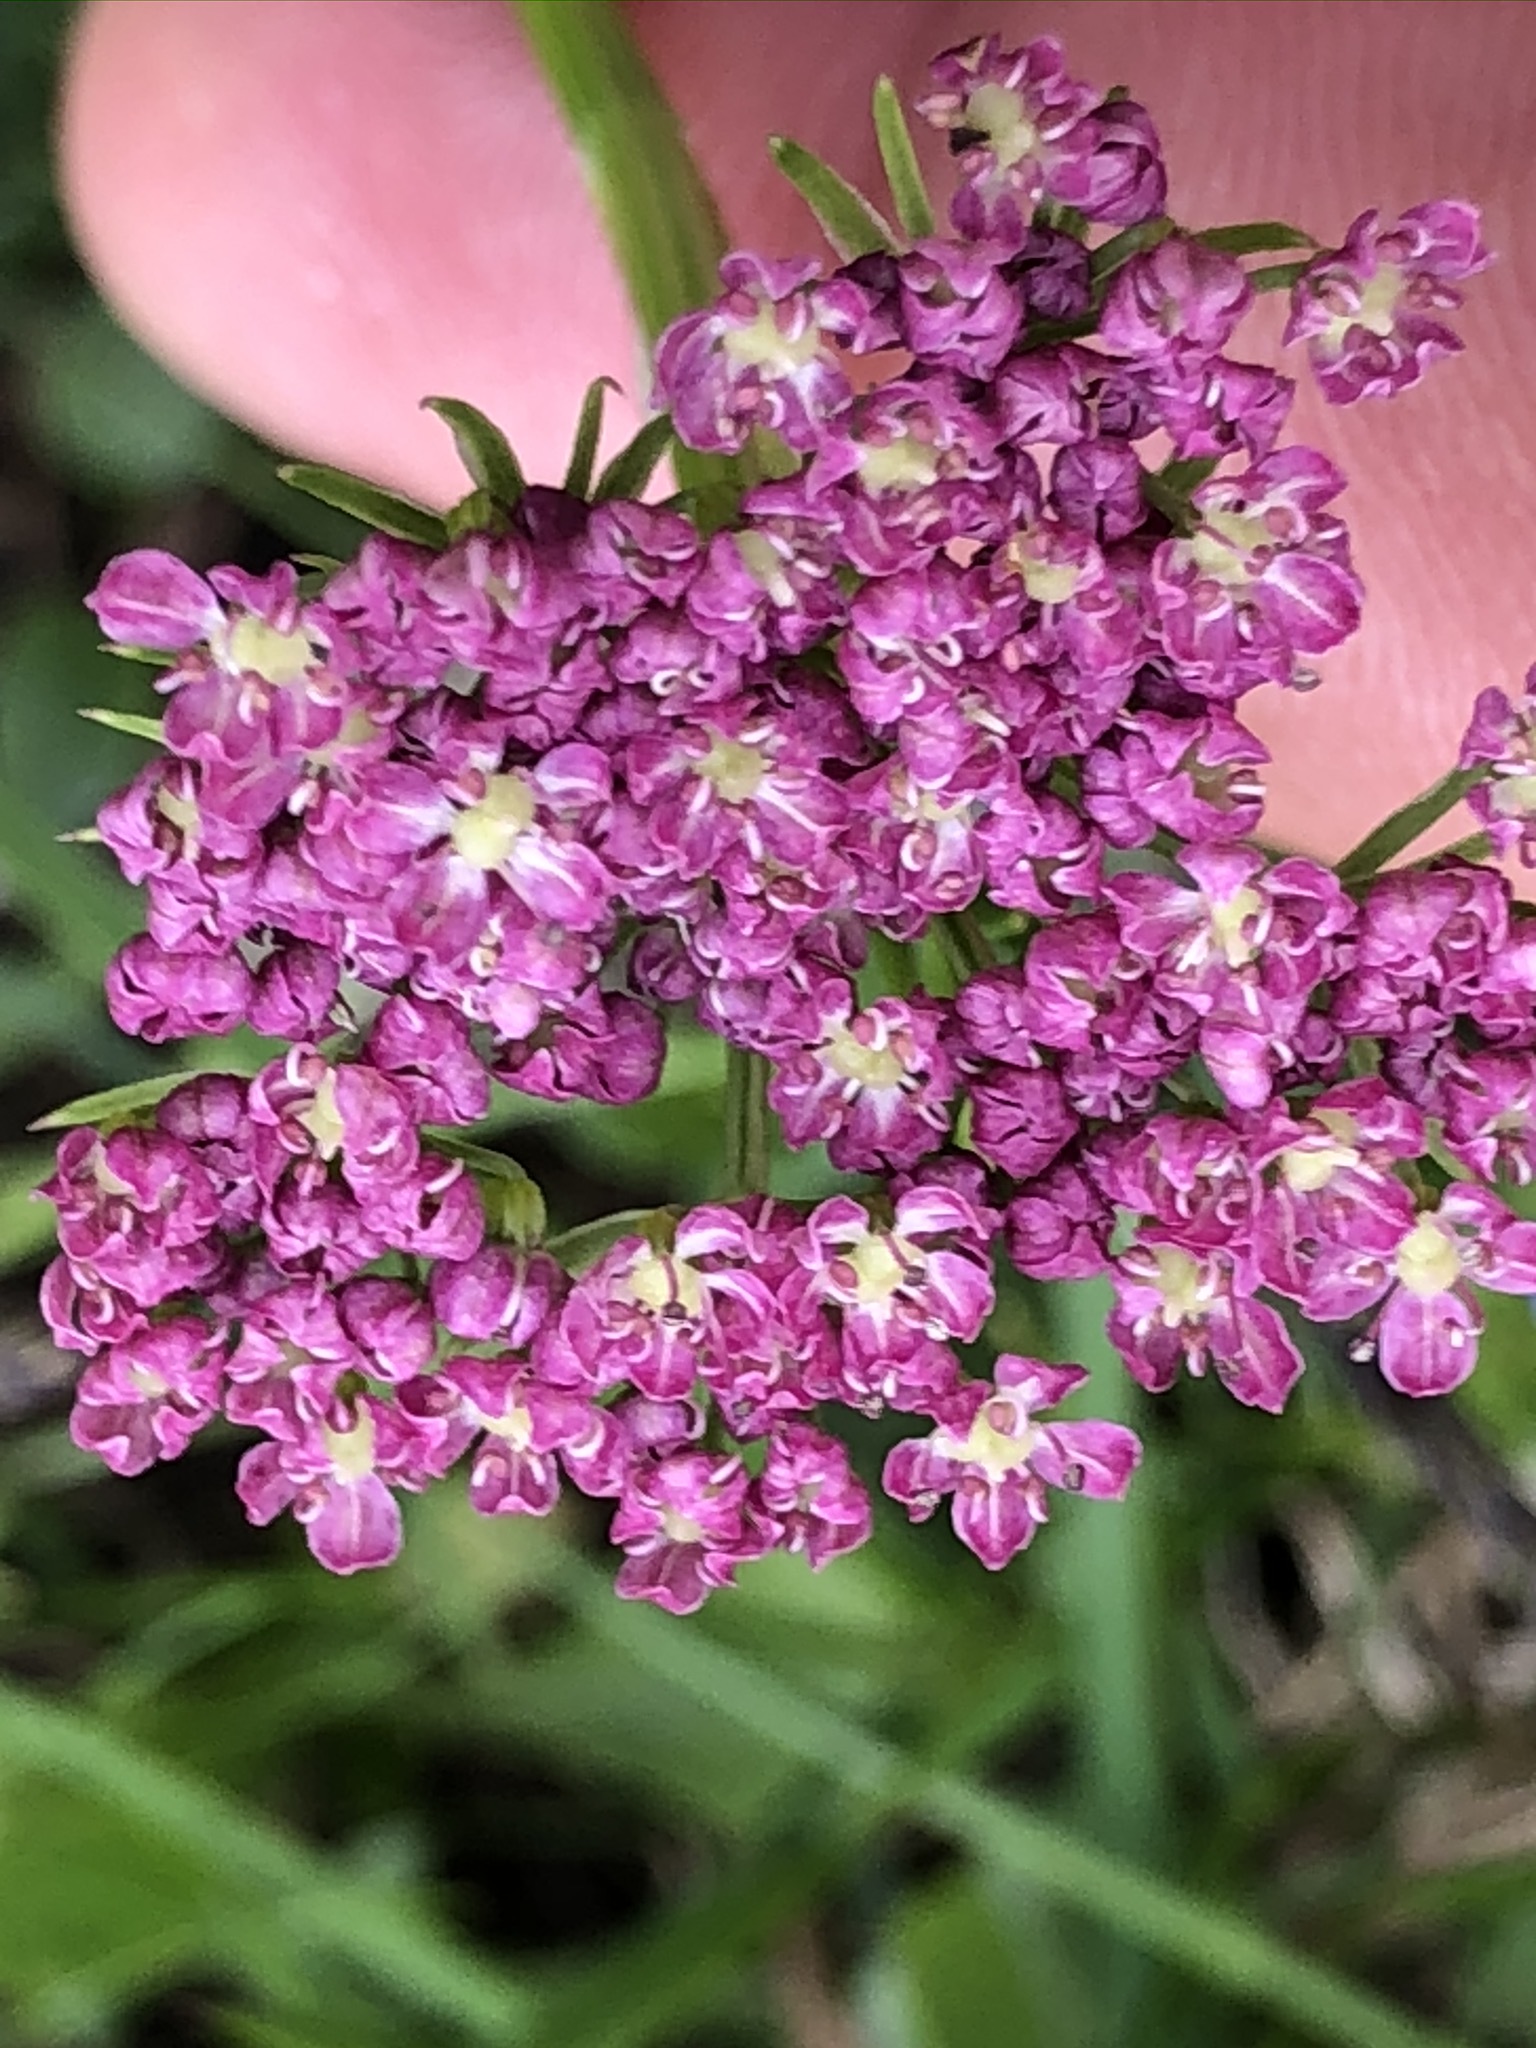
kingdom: Plantae
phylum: Tracheophyta
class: Magnoliopsida
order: Apiales
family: Apiaceae
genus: Mutellina
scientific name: Mutellina adonidifolia
